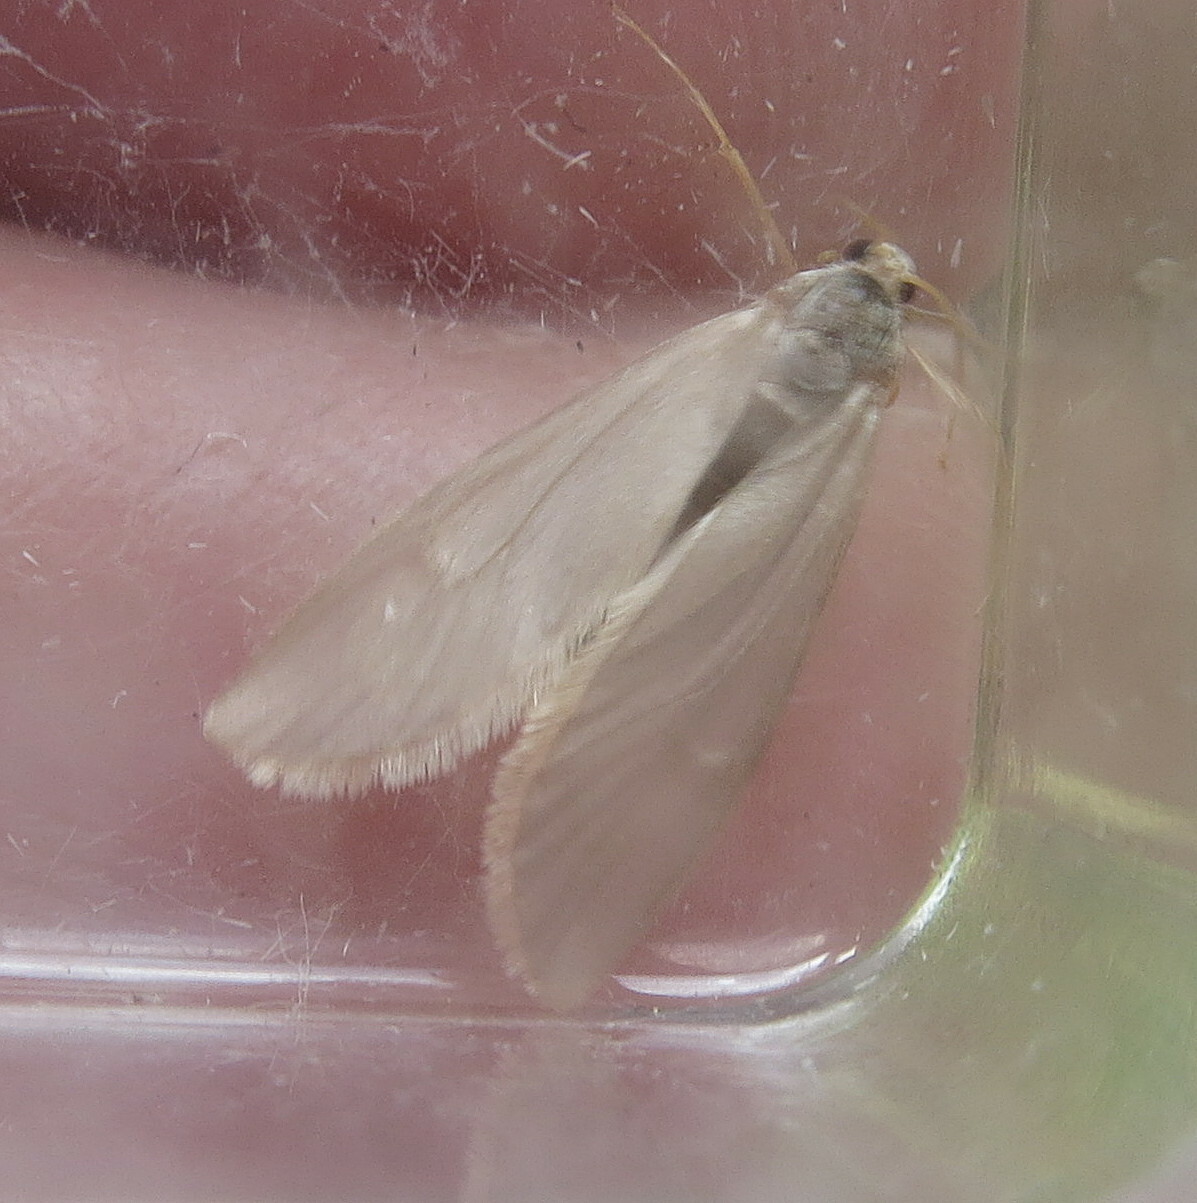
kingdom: Animalia
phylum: Arthropoda
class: Insecta
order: Lepidoptera
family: Crambidae
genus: Acentria
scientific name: Acentria ephemerella
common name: European water moth
